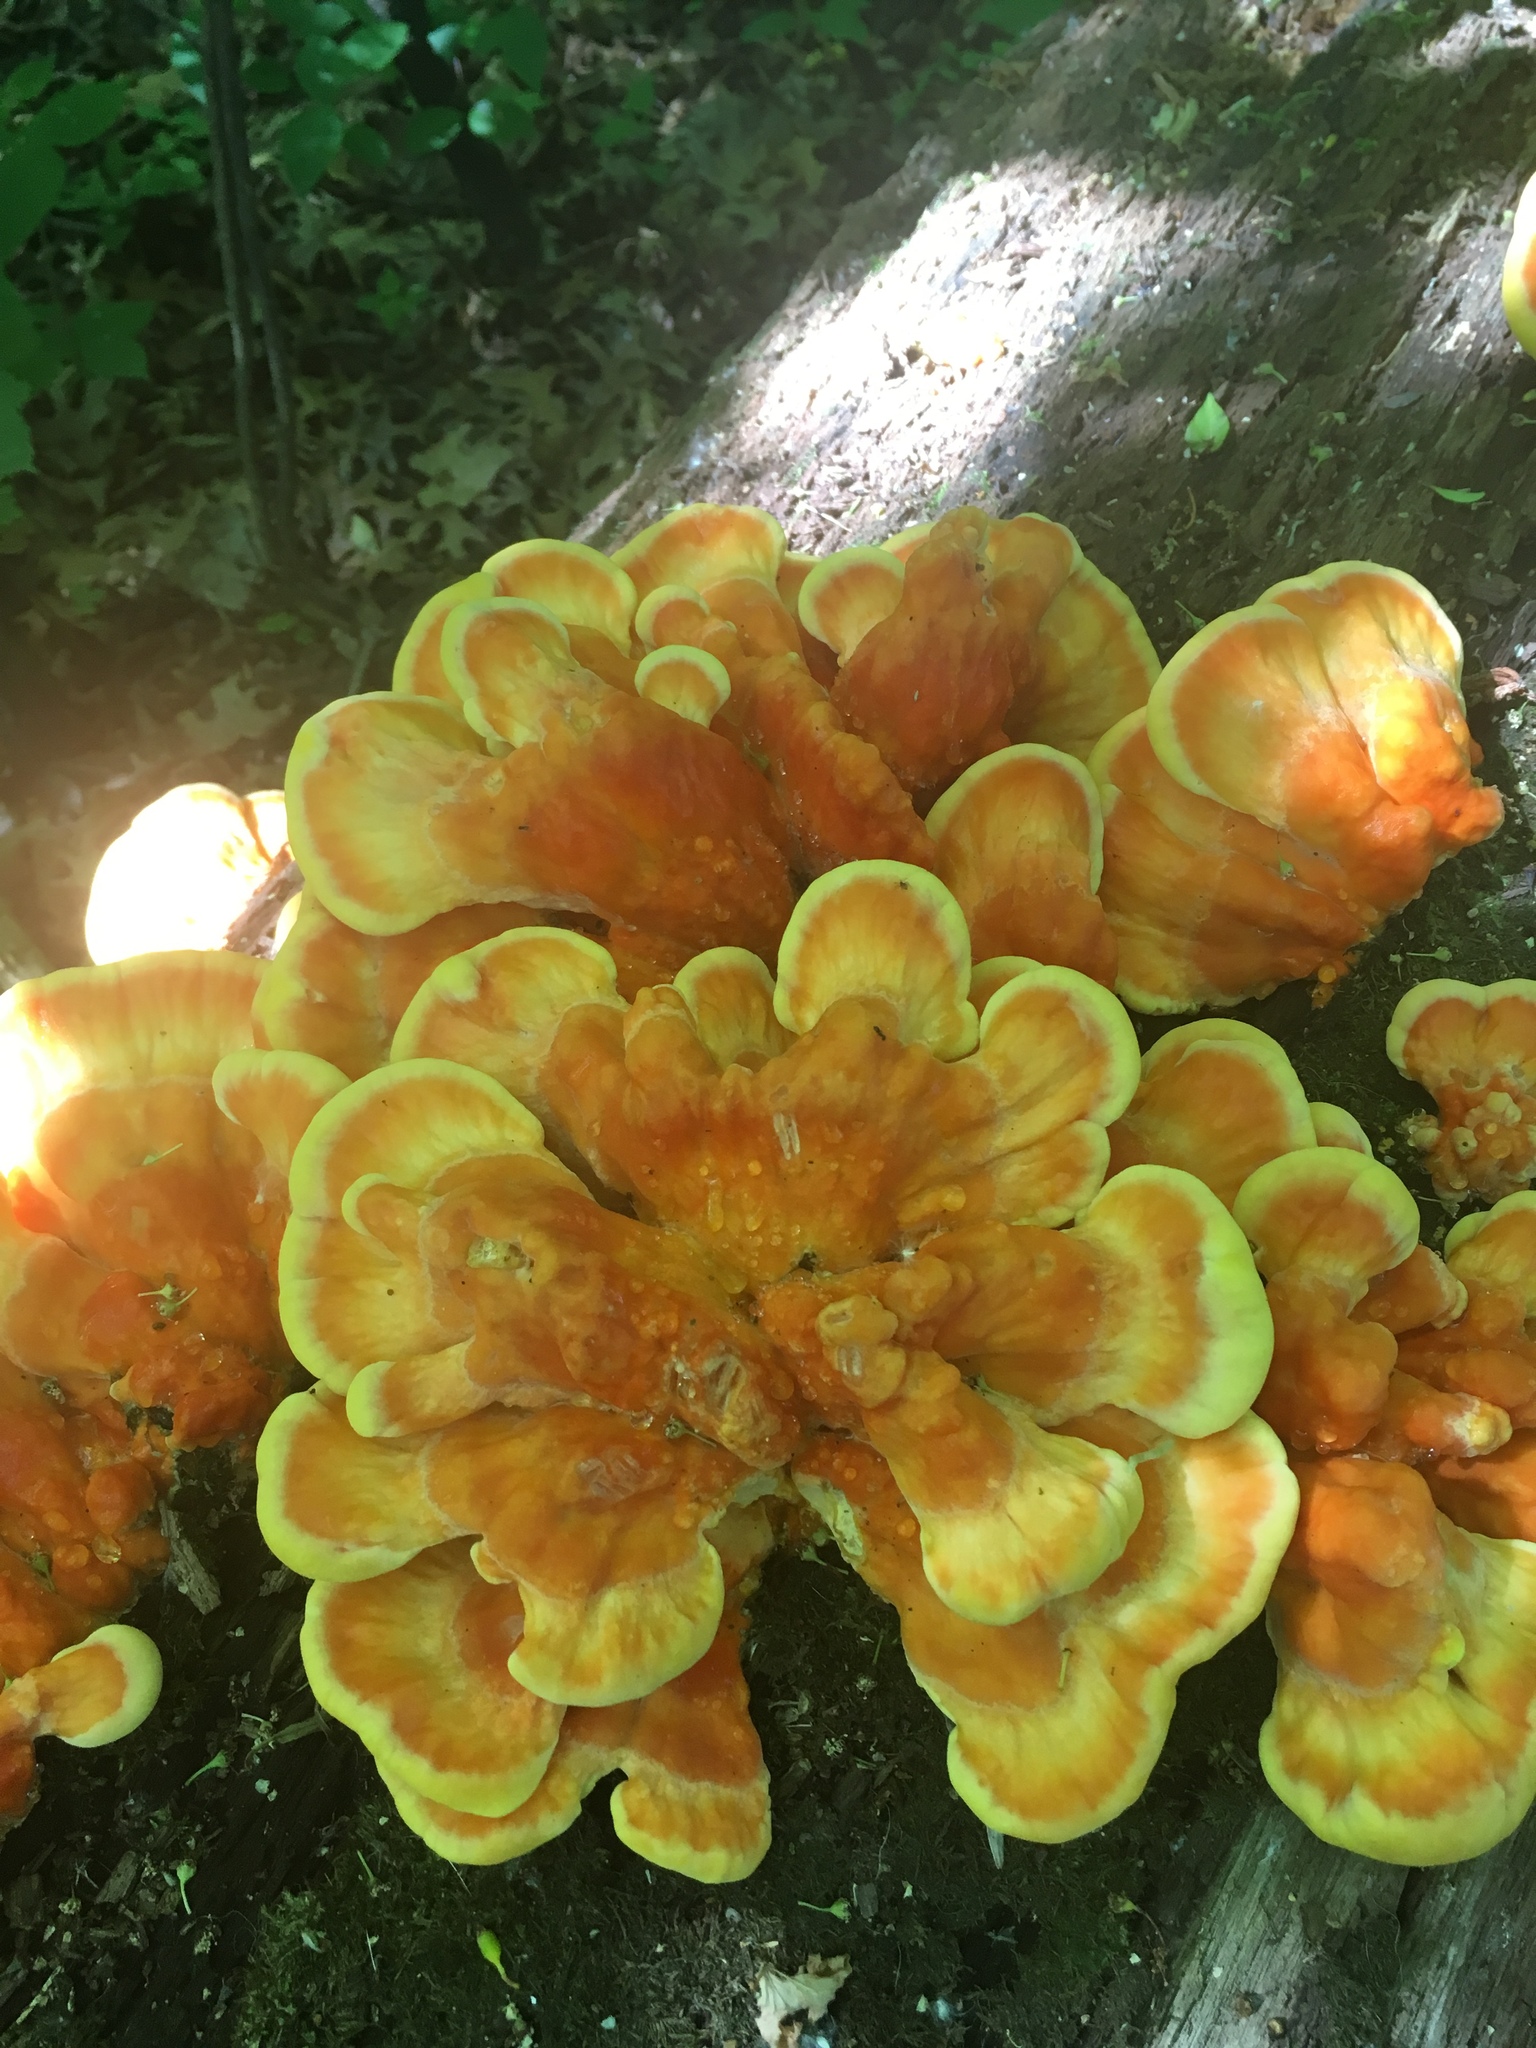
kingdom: Fungi
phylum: Basidiomycota
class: Agaricomycetes
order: Polyporales
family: Laetiporaceae
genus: Laetiporus
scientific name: Laetiporus sulphureus
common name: Chicken of the woods
